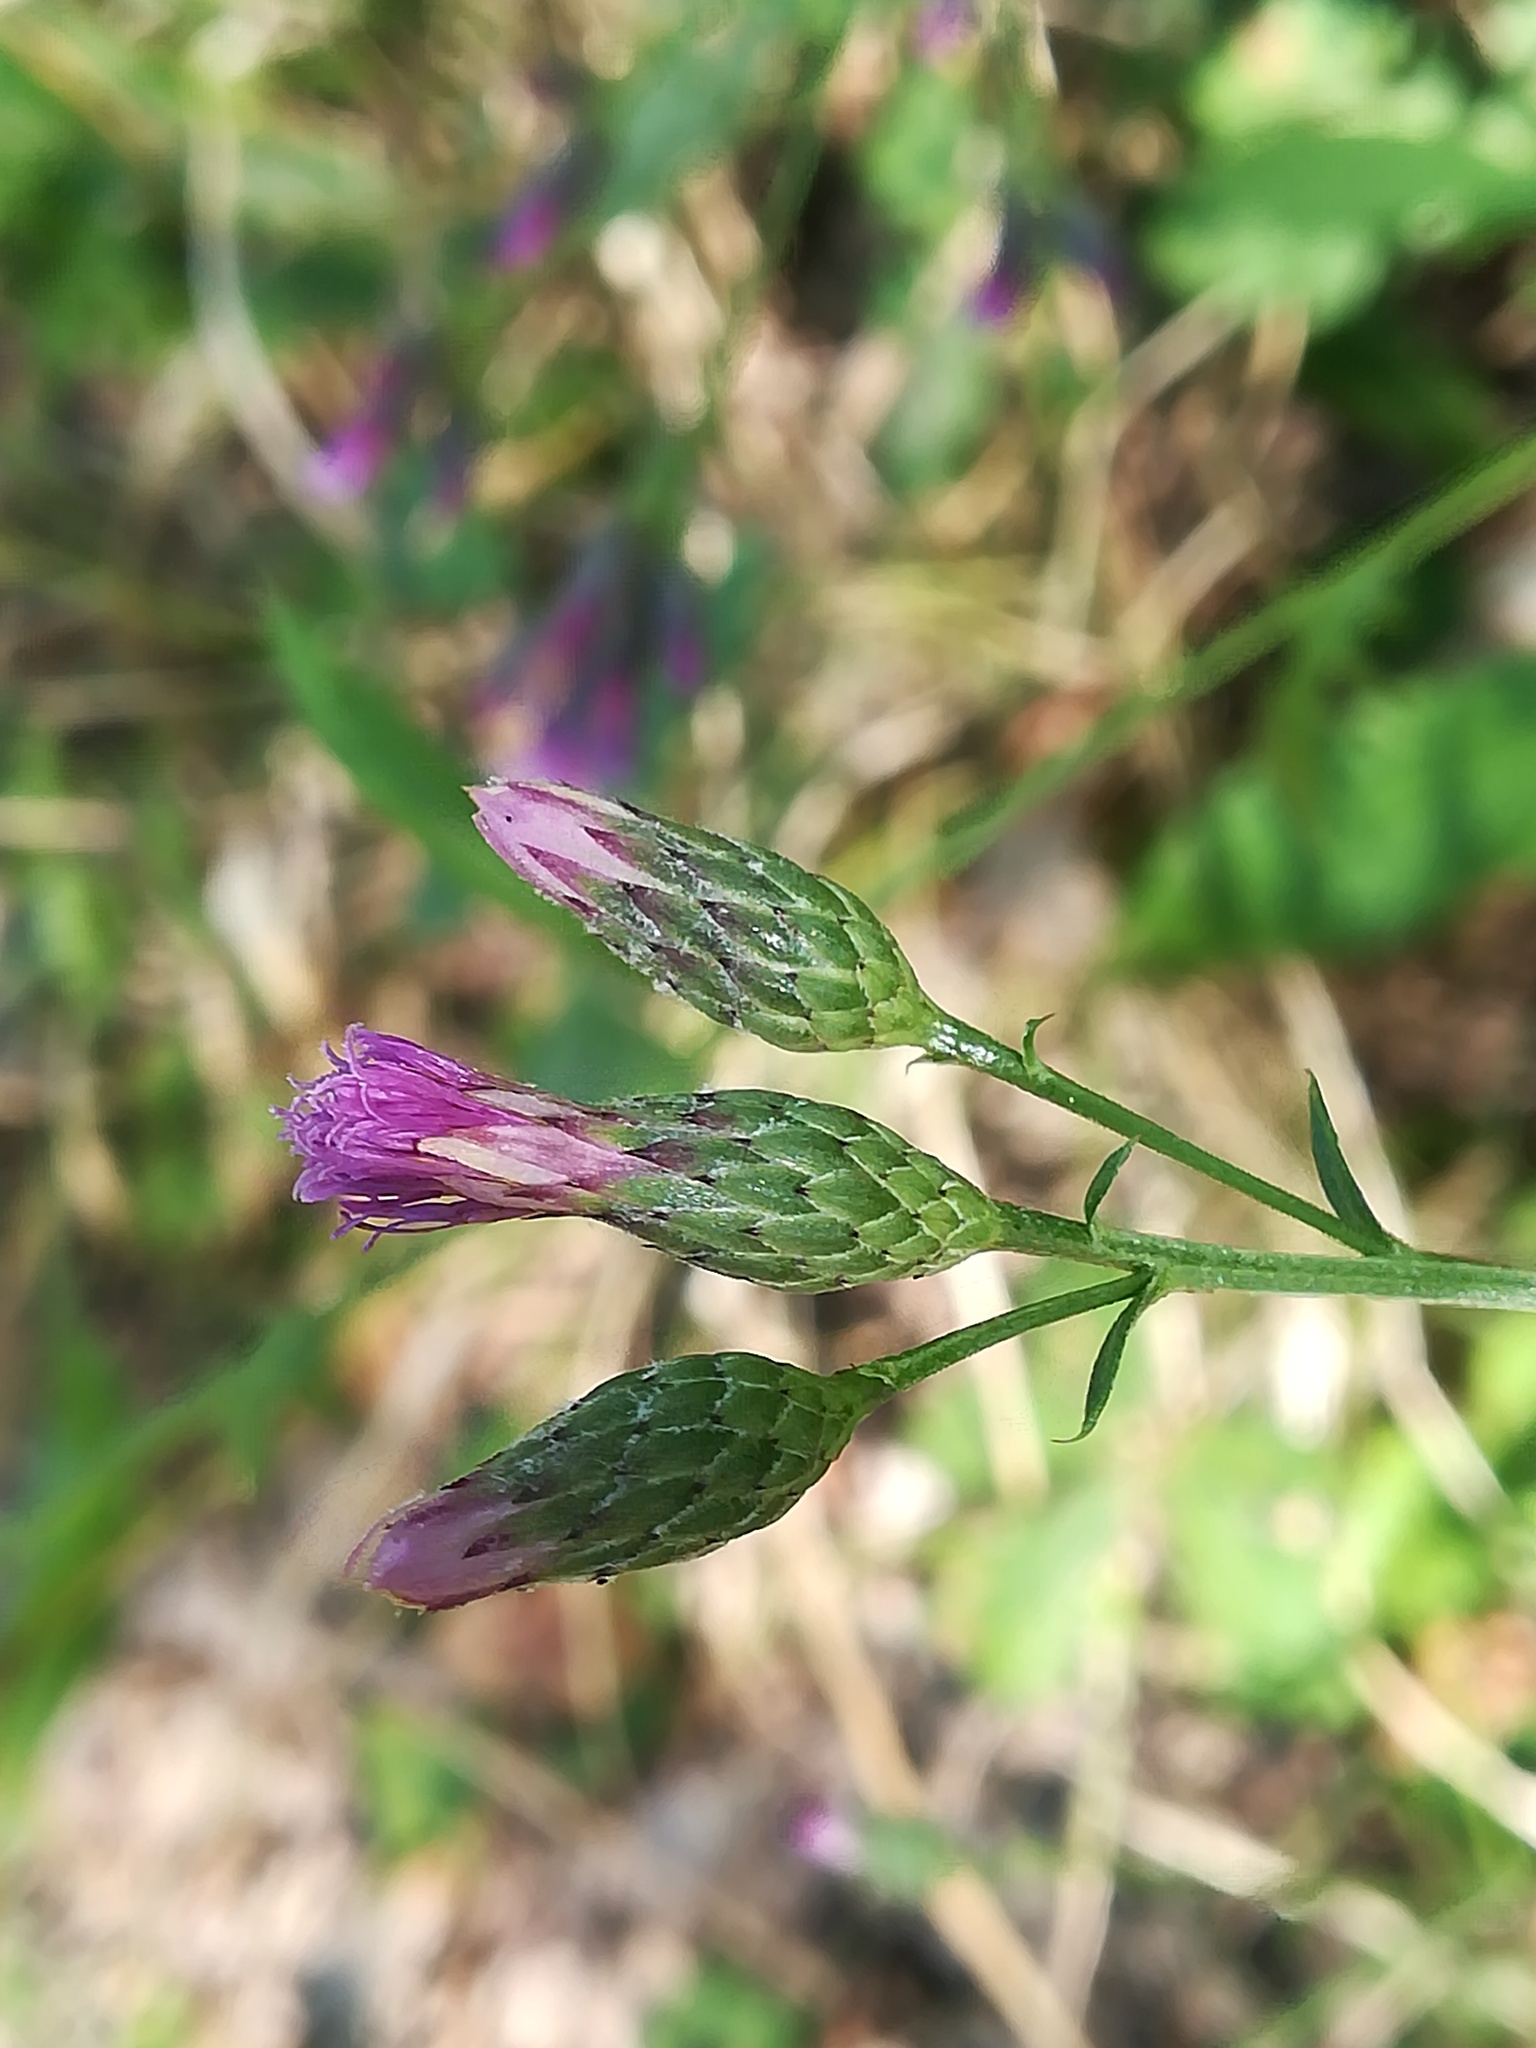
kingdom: Plantae
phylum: Tracheophyta
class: Magnoliopsida
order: Asterales
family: Asteraceae
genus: Serratula
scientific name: Serratula tinctoria
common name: Saw-wort
